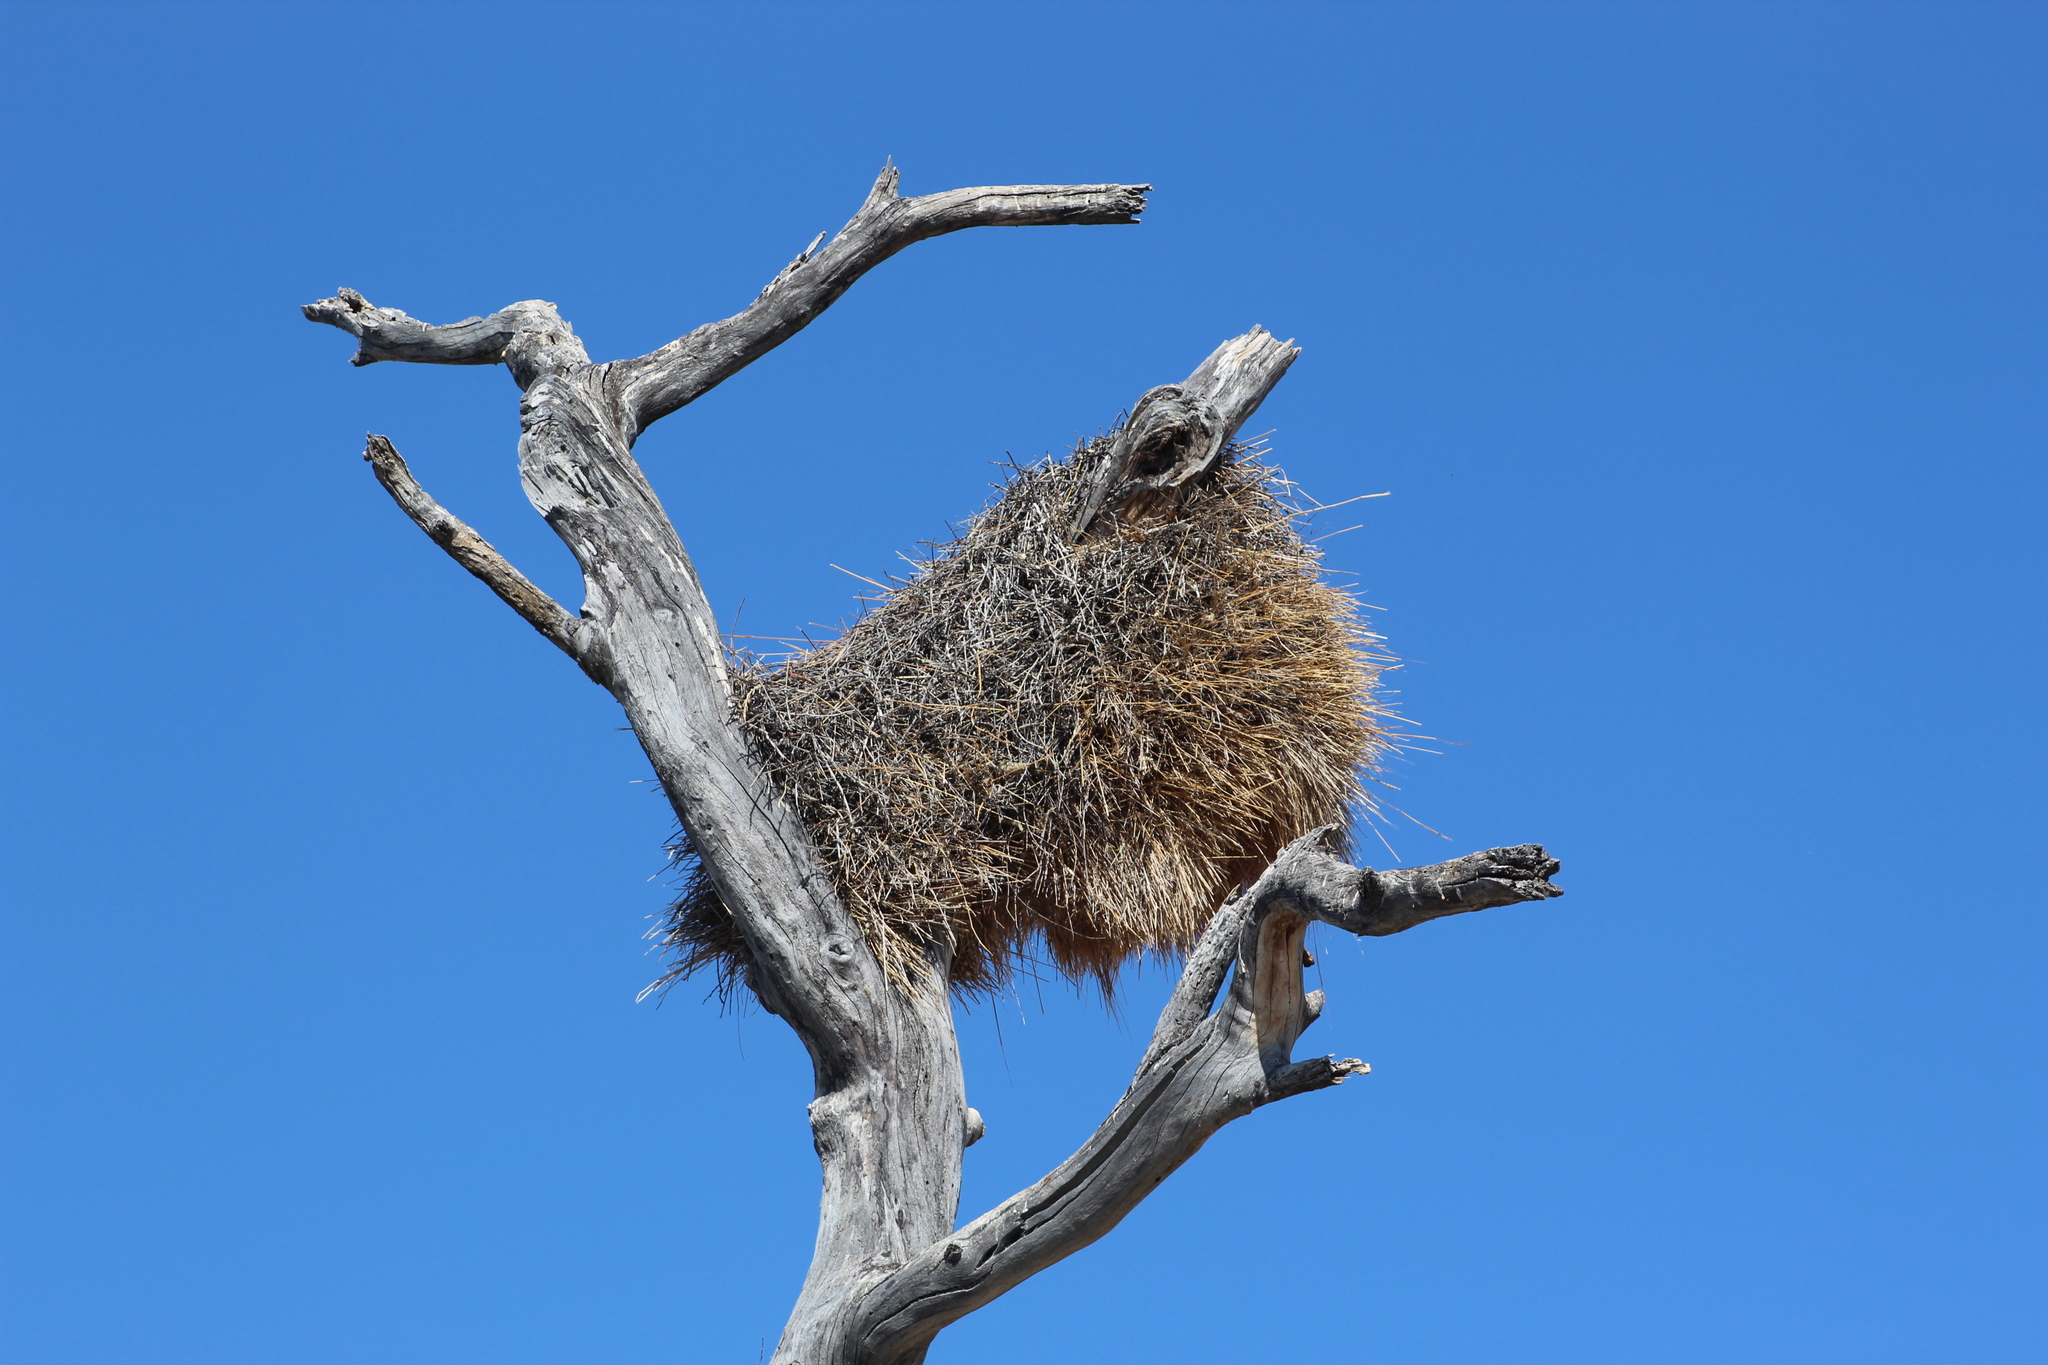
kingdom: Animalia
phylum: Chordata
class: Aves
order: Passeriformes
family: Passeridae
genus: Philetairus
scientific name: Philetairus socius
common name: Sociable weaver
